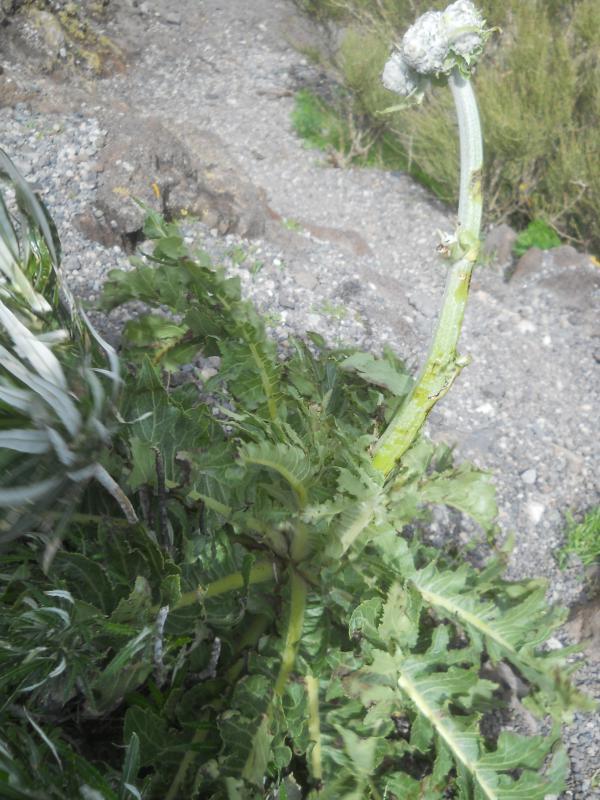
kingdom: Plantae
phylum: Tracheophyta
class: Magnoliopsida
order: Asterales
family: Asteraceae
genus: Sonchus
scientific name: Sonchus acaulis
